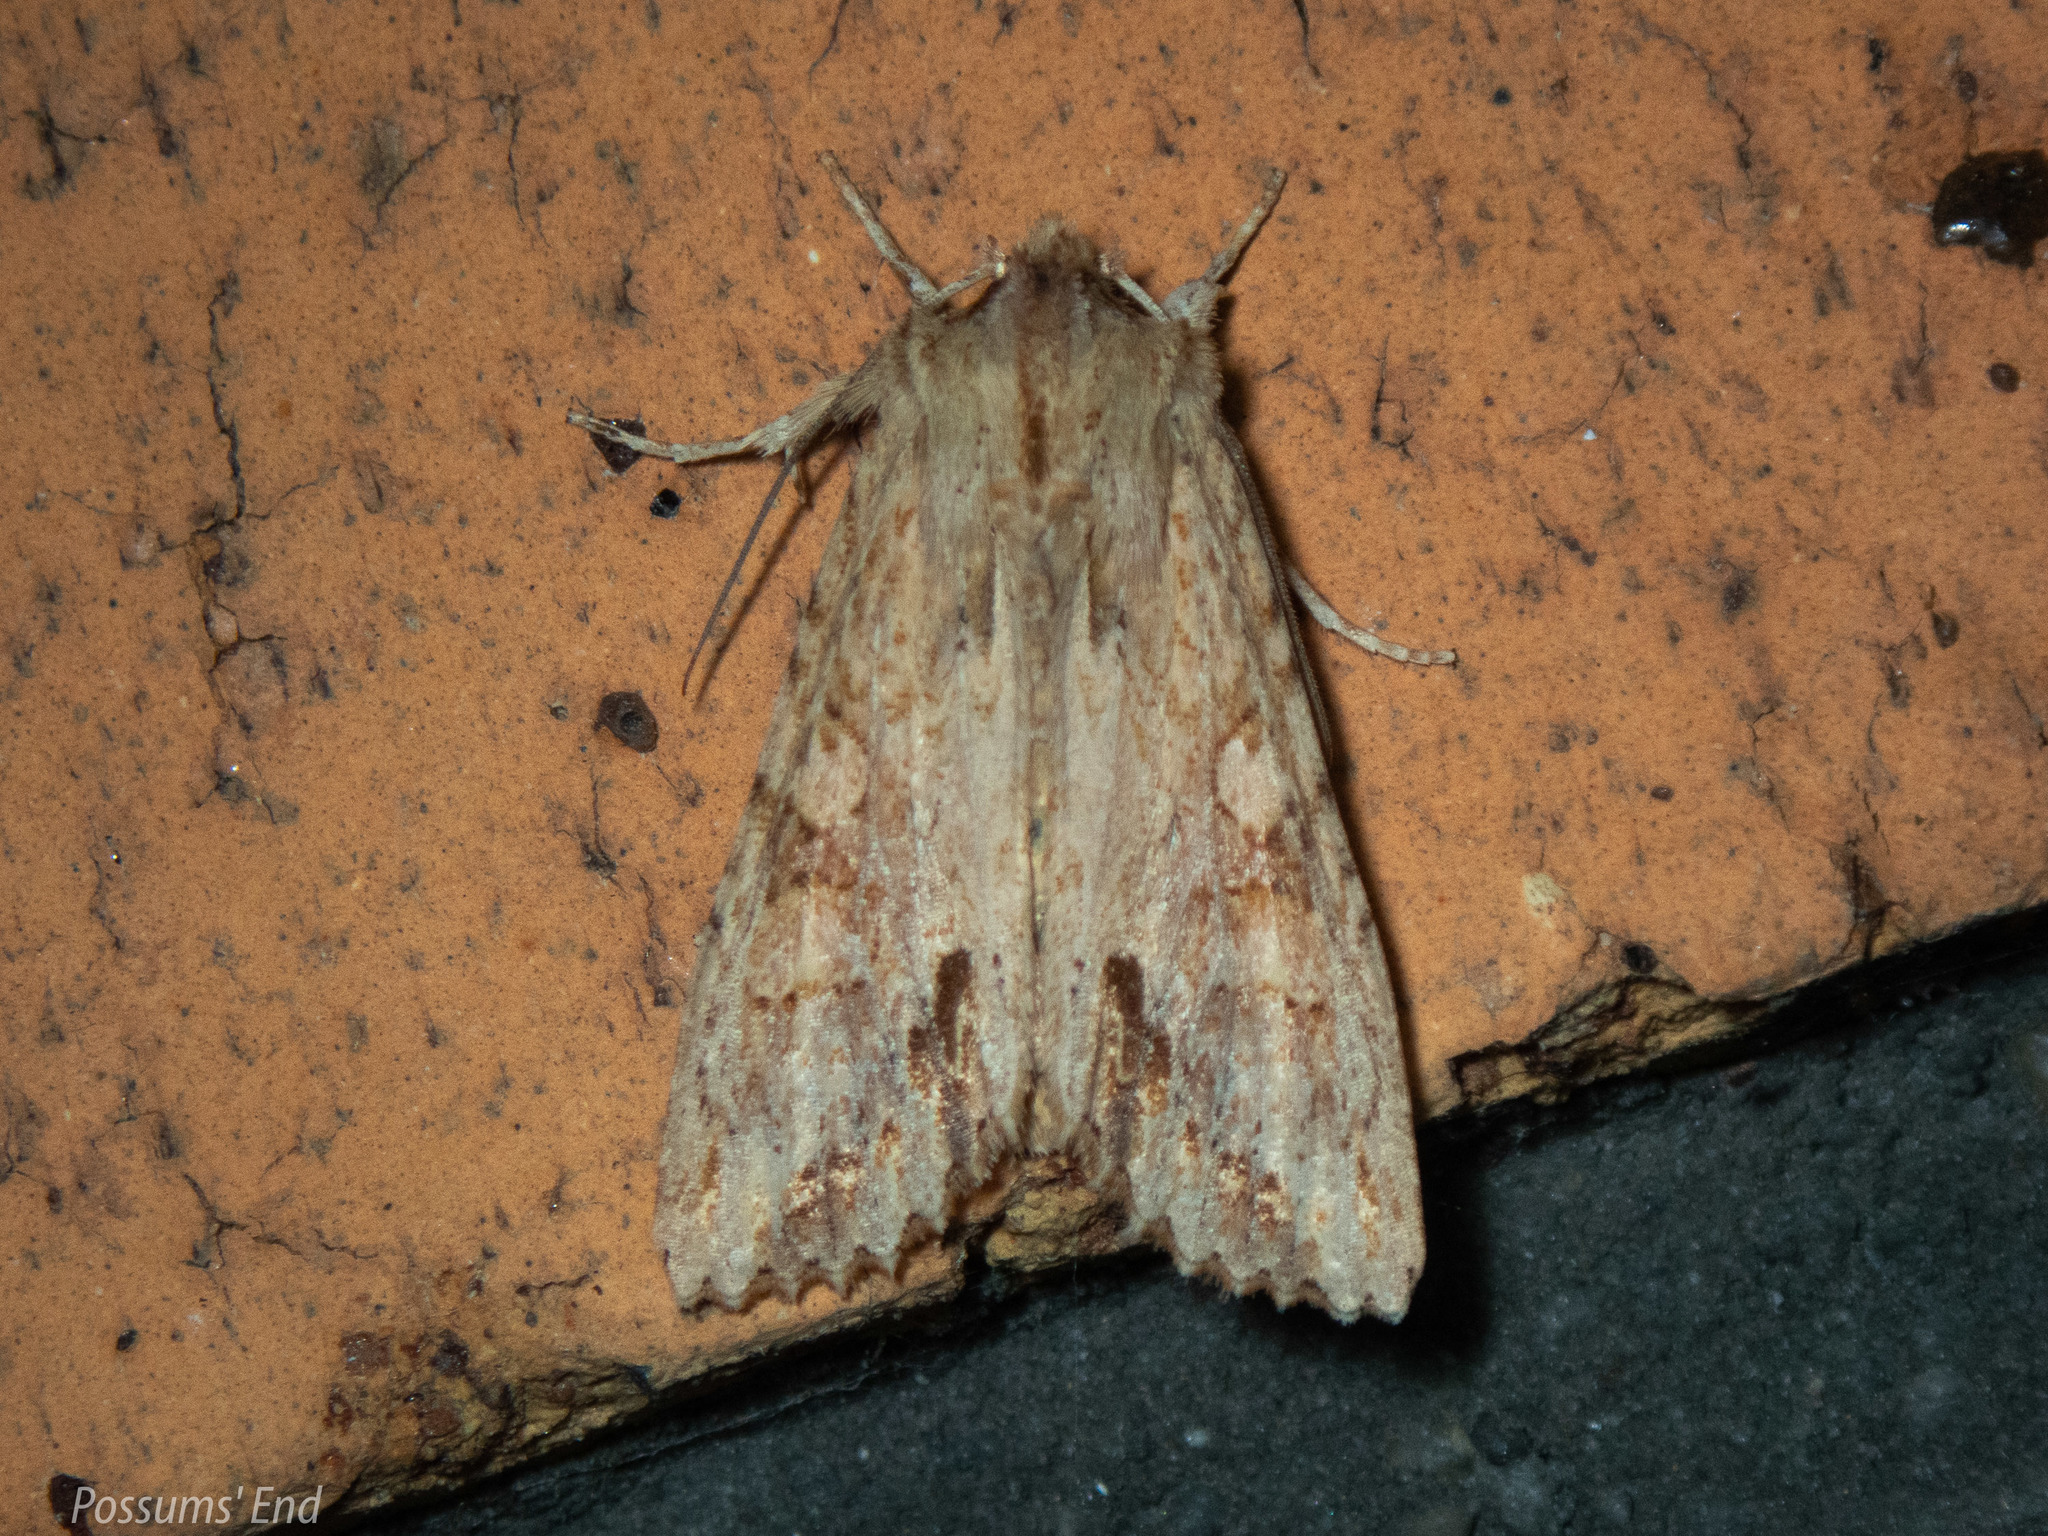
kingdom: Animalia
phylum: Arthropoda
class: Insecta
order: Lepidoptera
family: Noctuidae
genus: Ichneutica
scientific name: Ichneutica mollis
